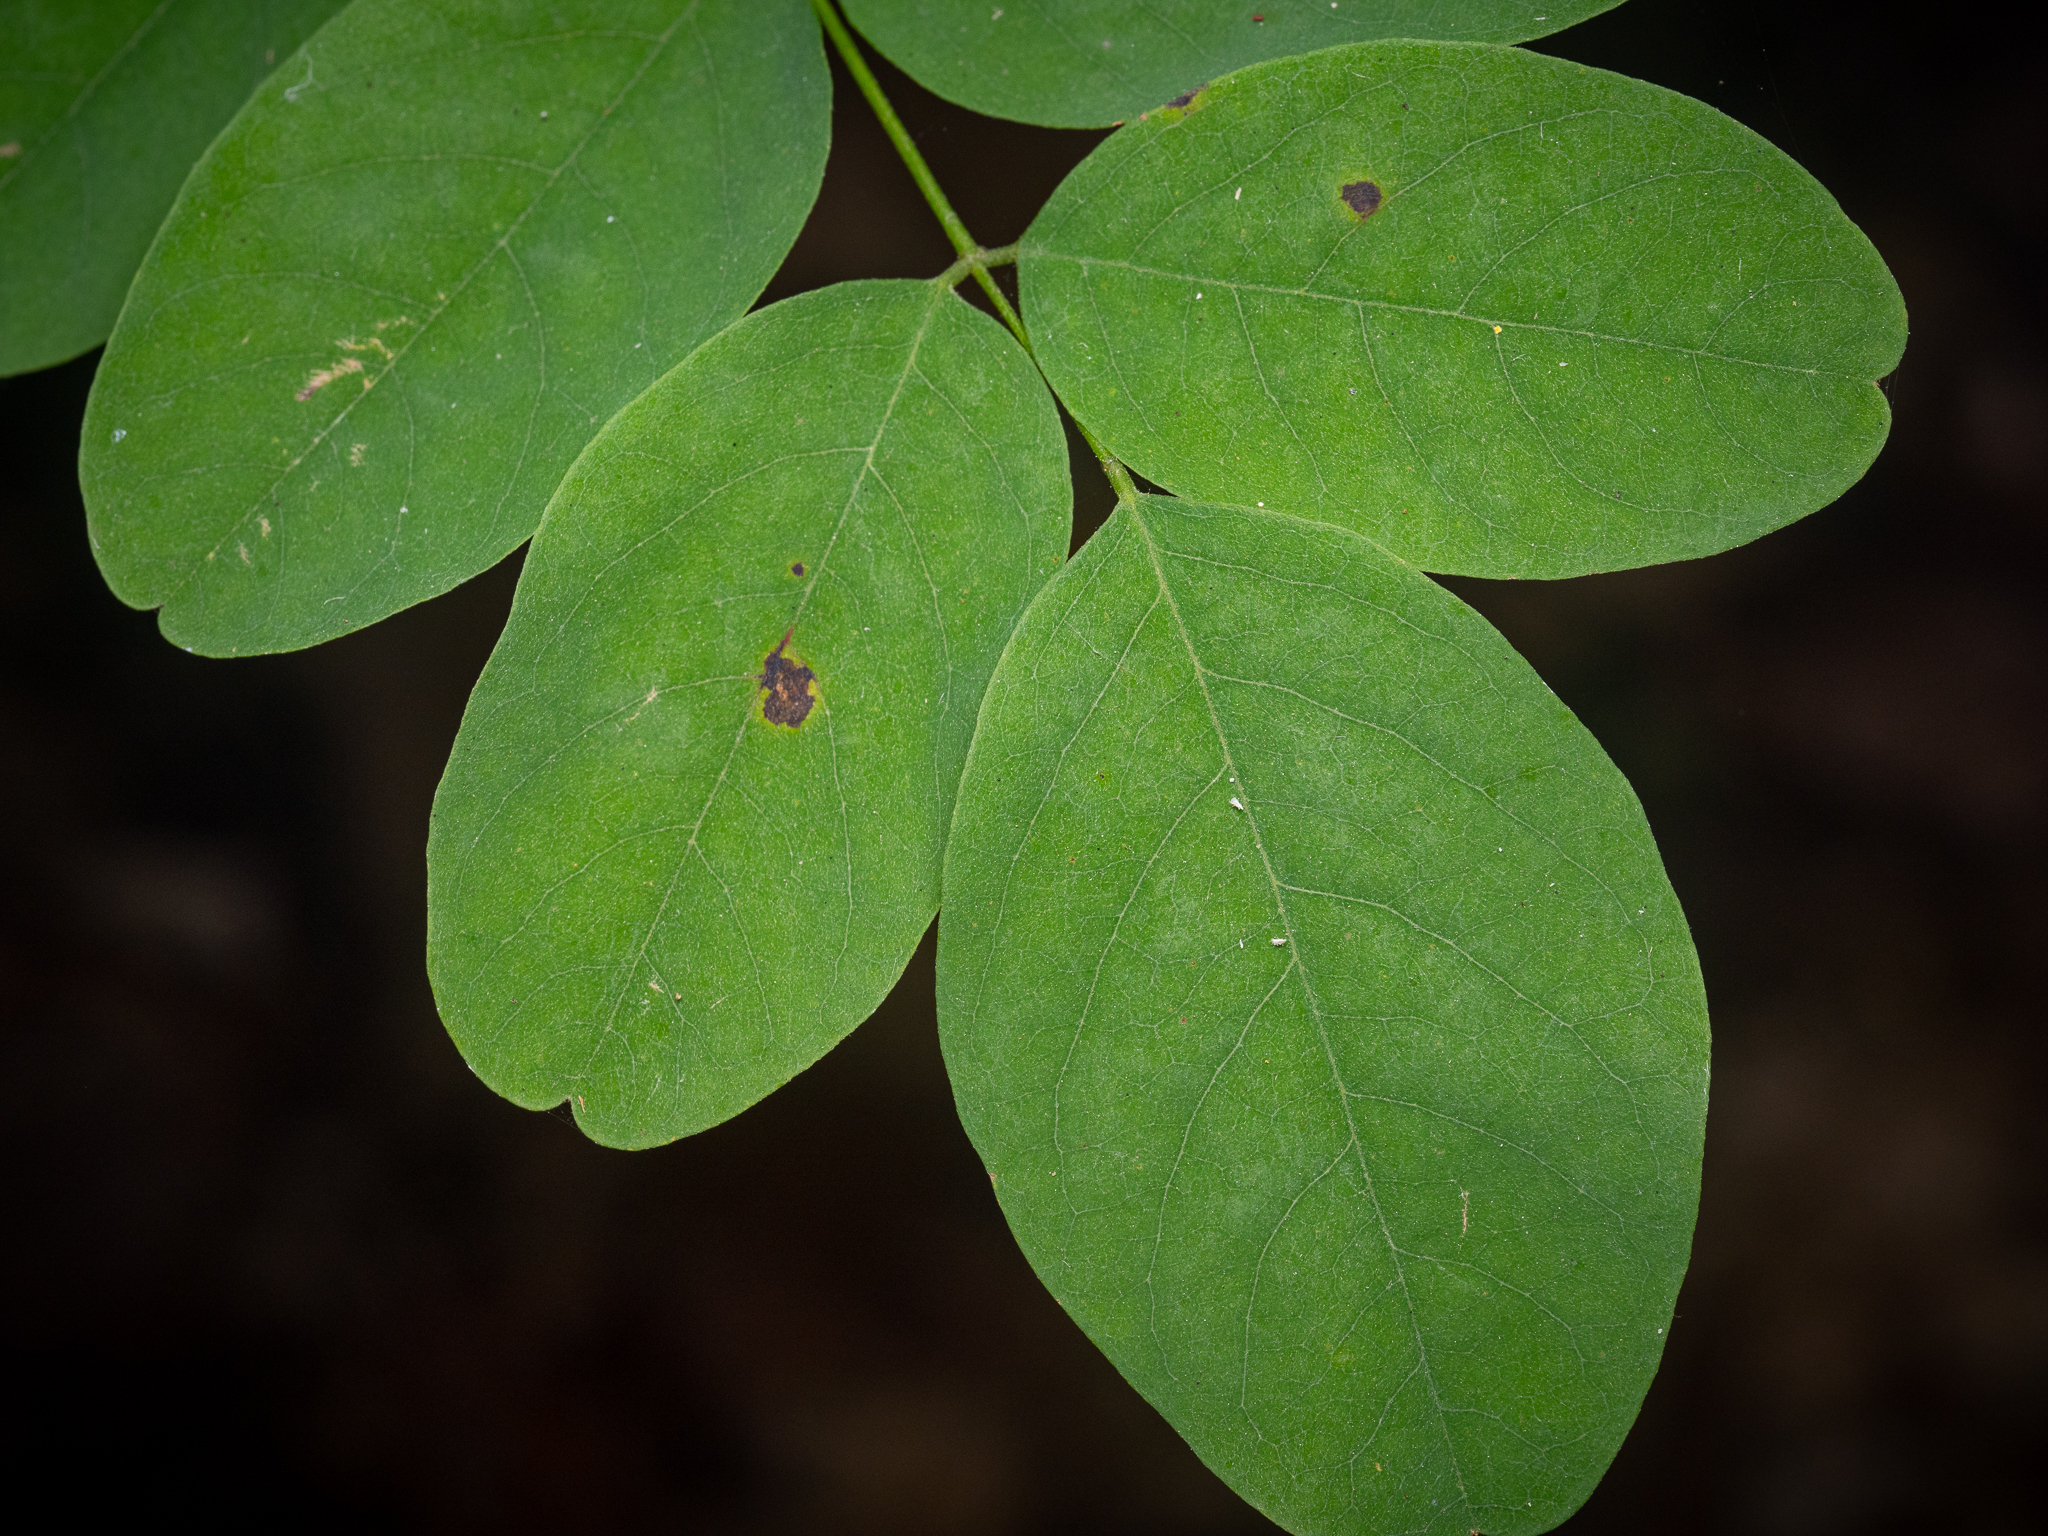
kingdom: Plantae
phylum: Tracheophyta
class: Magnoliopsida
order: Fabales
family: Fabaceae
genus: Robinia
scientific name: Robinia pseudoacacia
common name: Black locust
